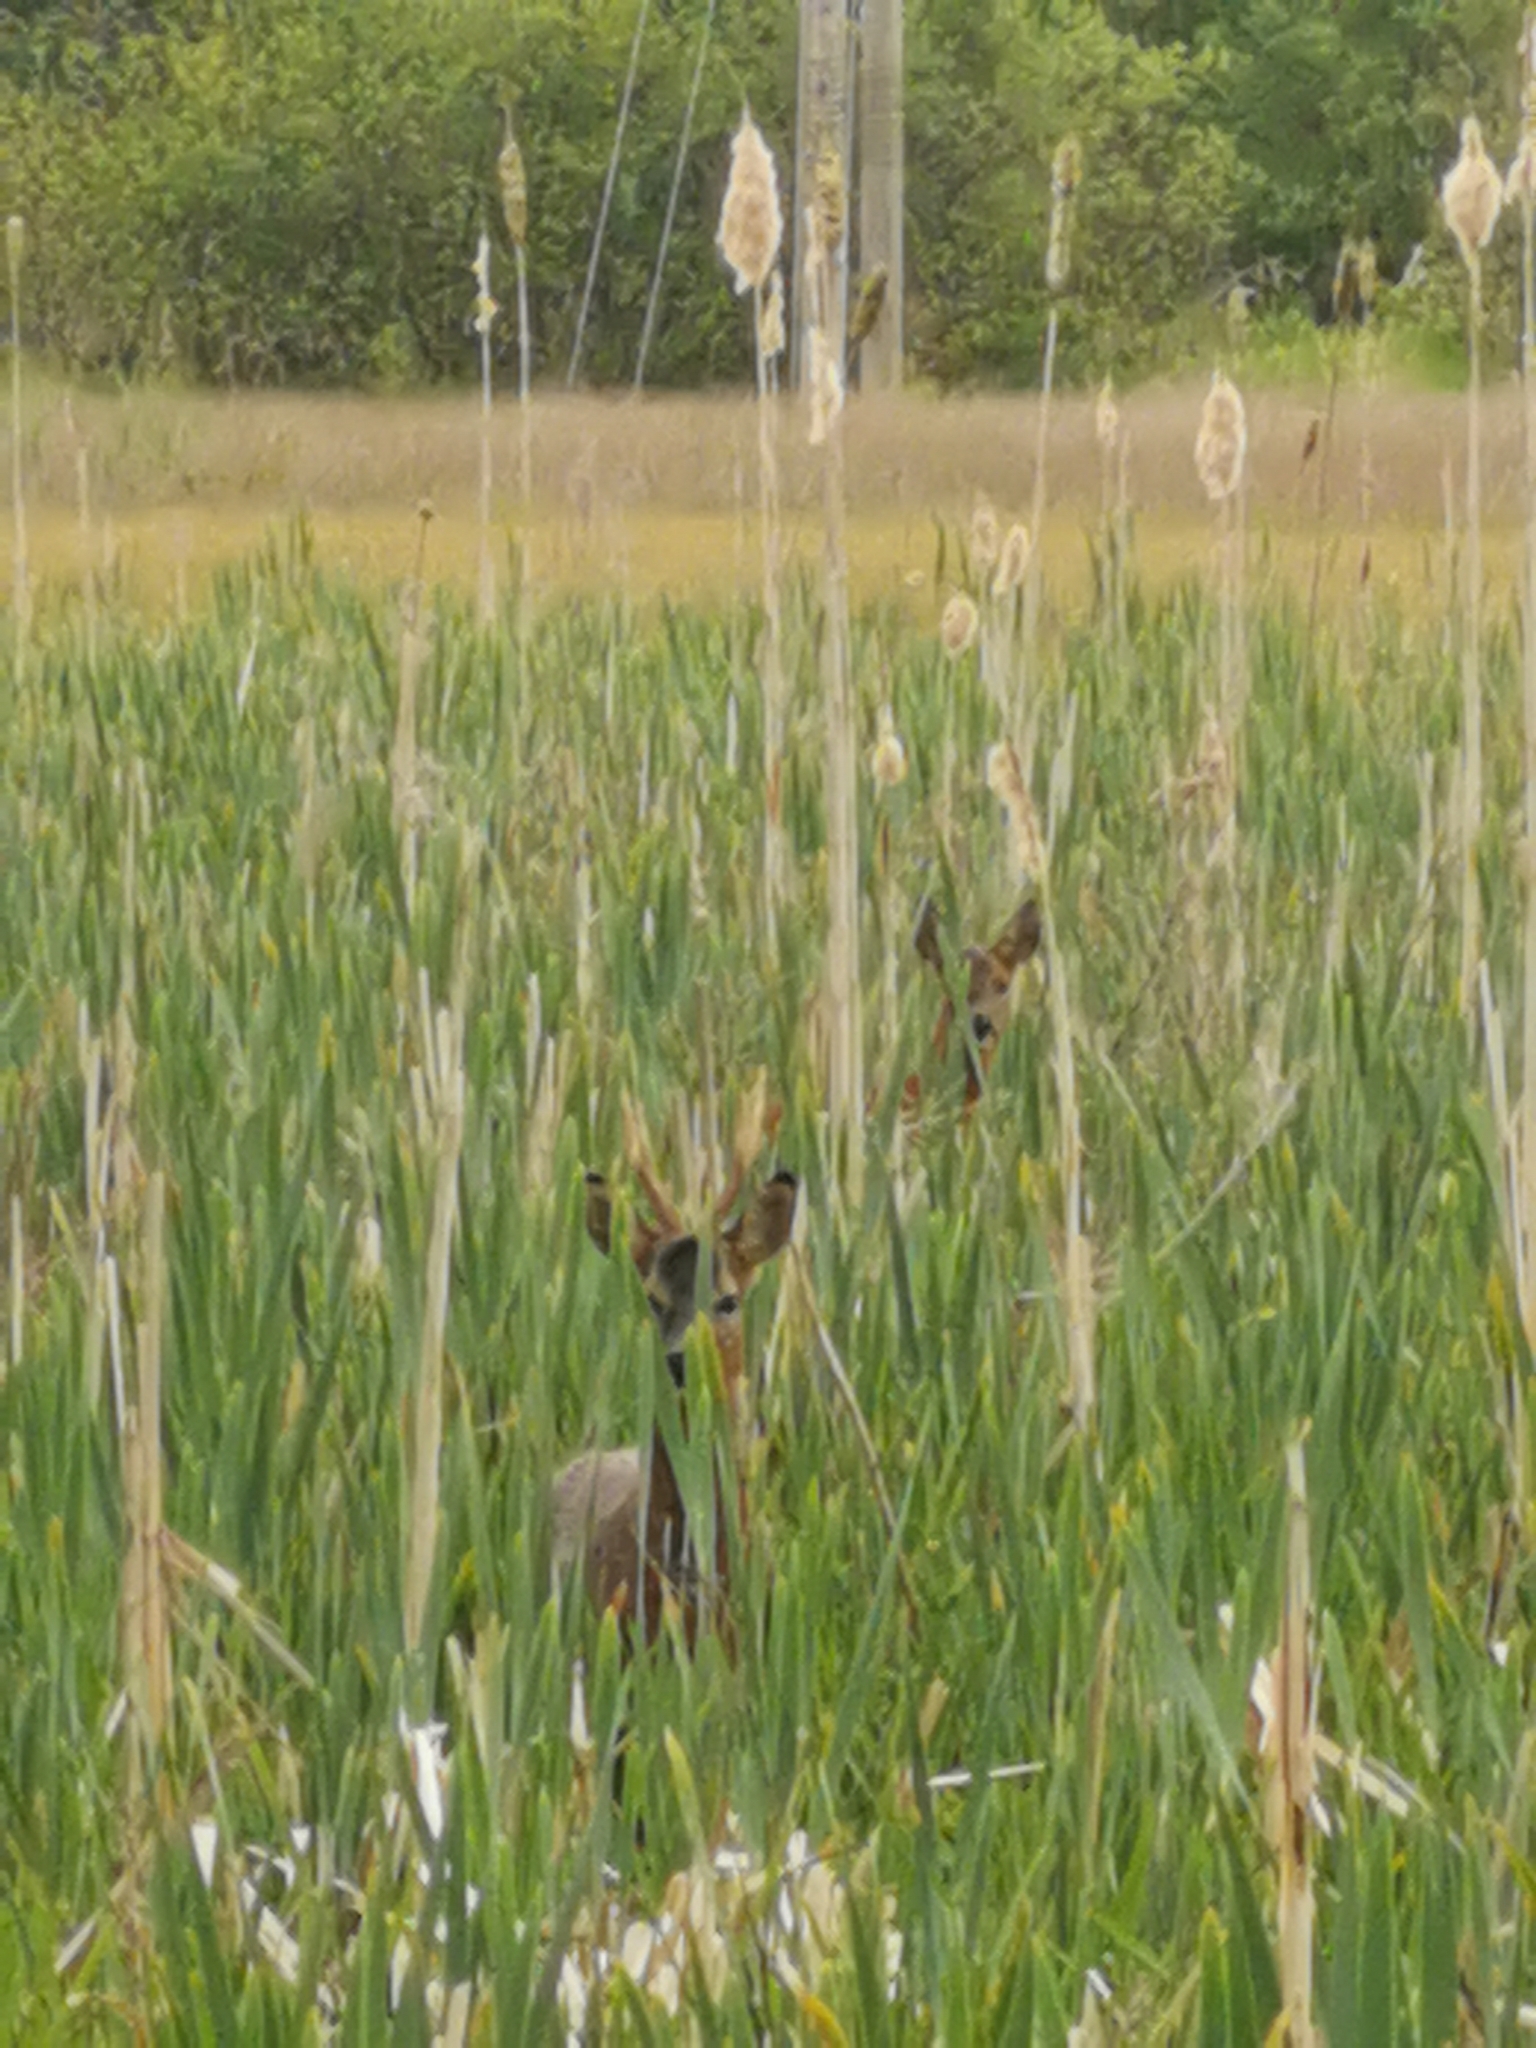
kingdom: Animalia
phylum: Chordata
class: Mammalia
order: Artiodactyla
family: Cervidae
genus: Capreolus
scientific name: Capreolus capreolus
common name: Western roe deer
